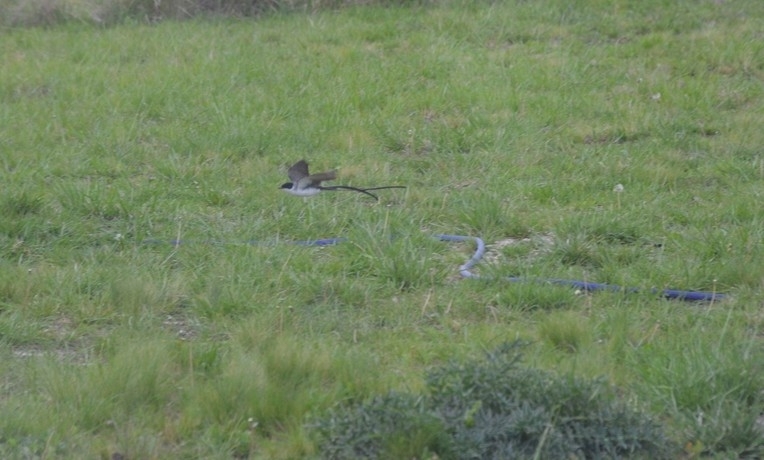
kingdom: Animalia
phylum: Chordata
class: Aves
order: Passeriformes
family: Tyrannidae
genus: Tyrannus
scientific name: Tyrannus savana
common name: Fork-tailed flycatcher
